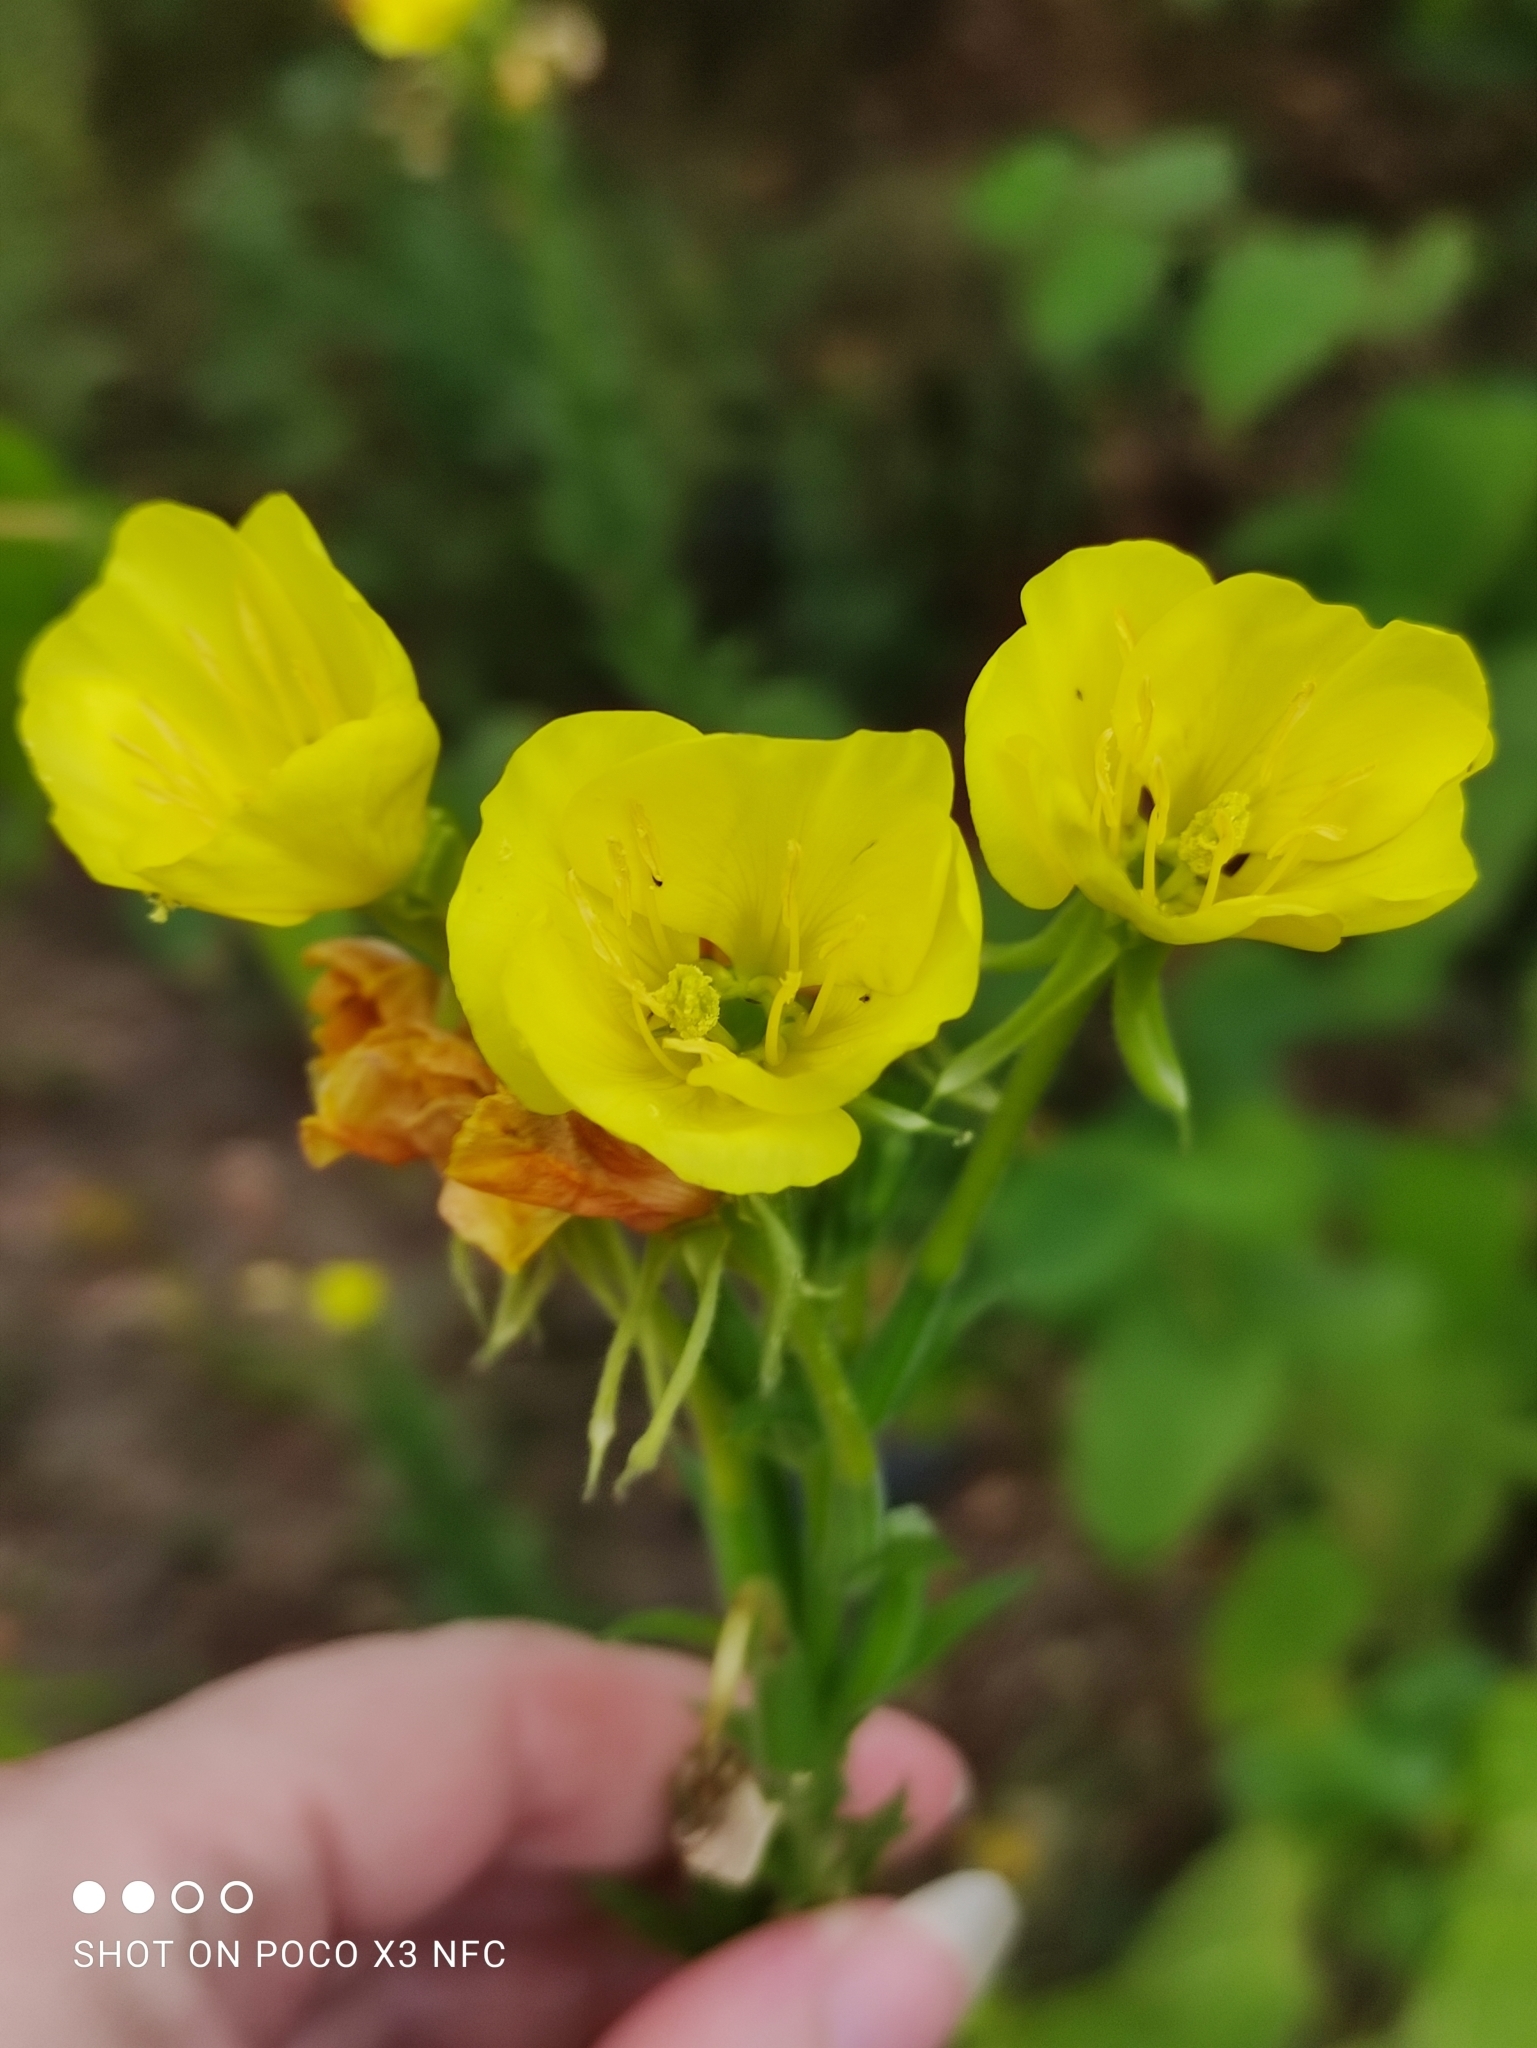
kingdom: Plantae
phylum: Tracheophyta
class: Magnoliopsida
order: Myrtales
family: Onagraceae
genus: Oenothera
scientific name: Oenothera biennis
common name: Common evening-primrose
